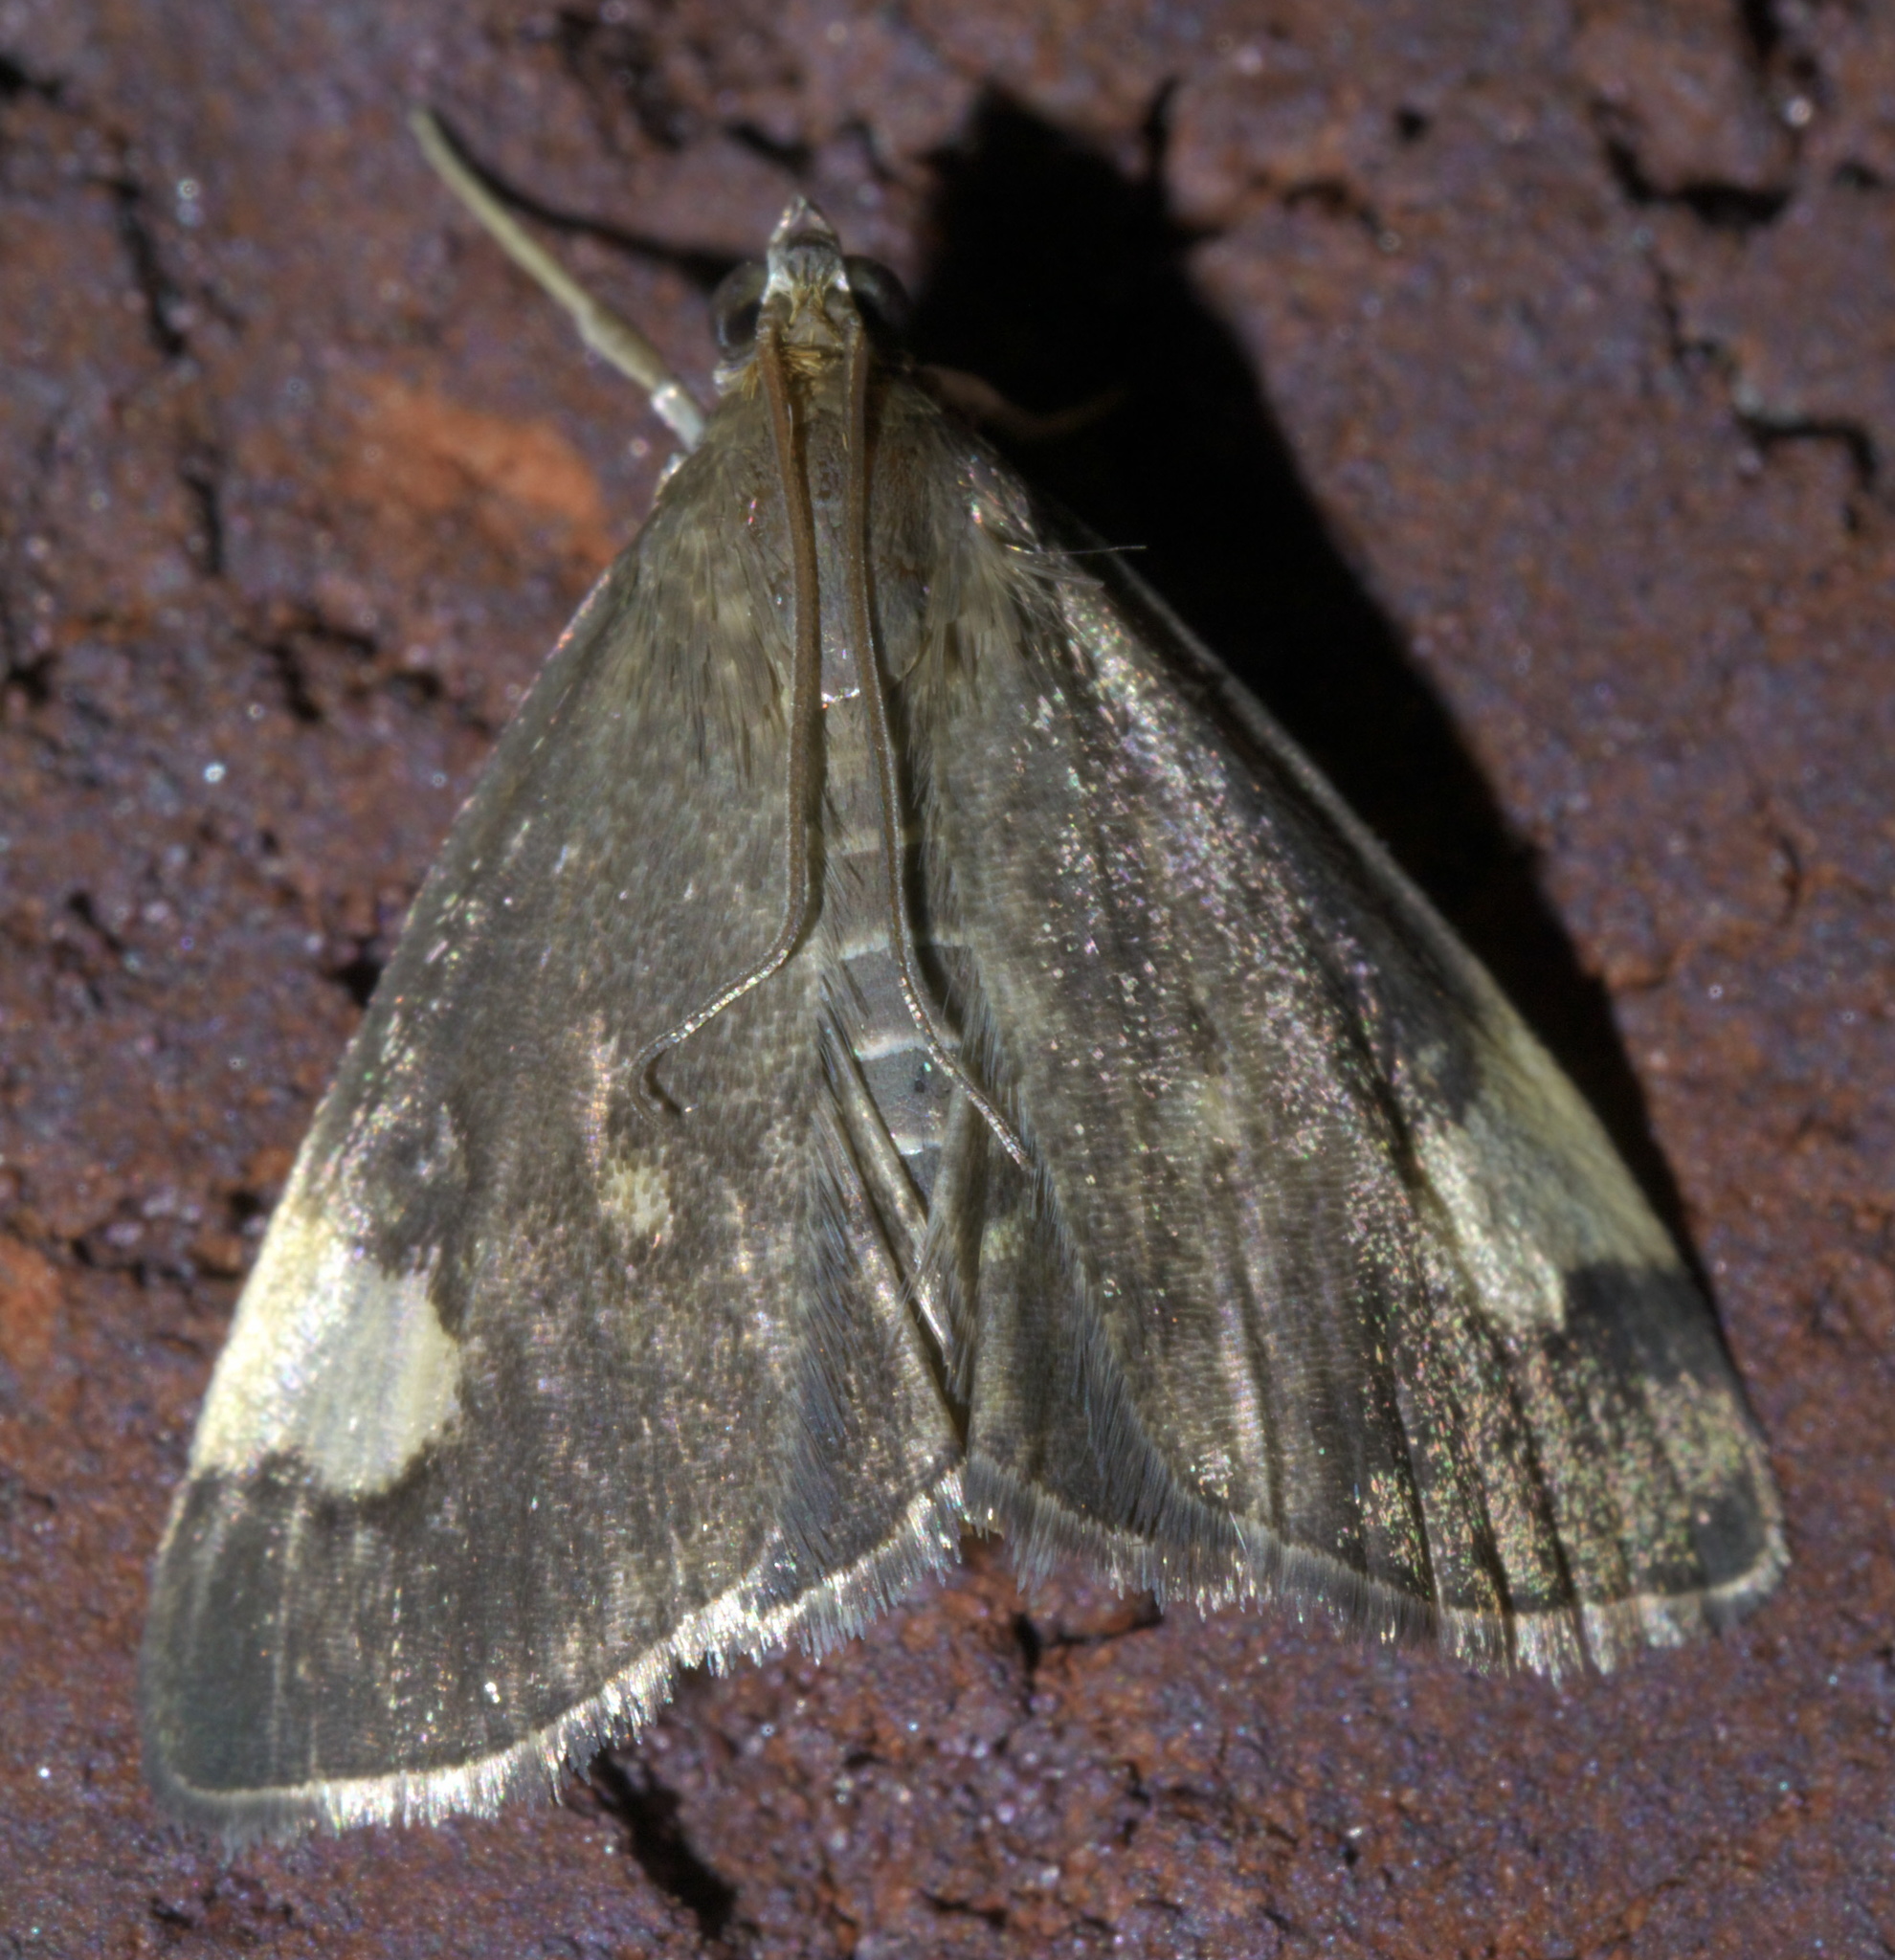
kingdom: Animalia
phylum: Arthropoda
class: Insecta
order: Lepidoptera
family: Crambidae
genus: Evergestis
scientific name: Evergestis unimacula
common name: Large-spotted evergestis moth
